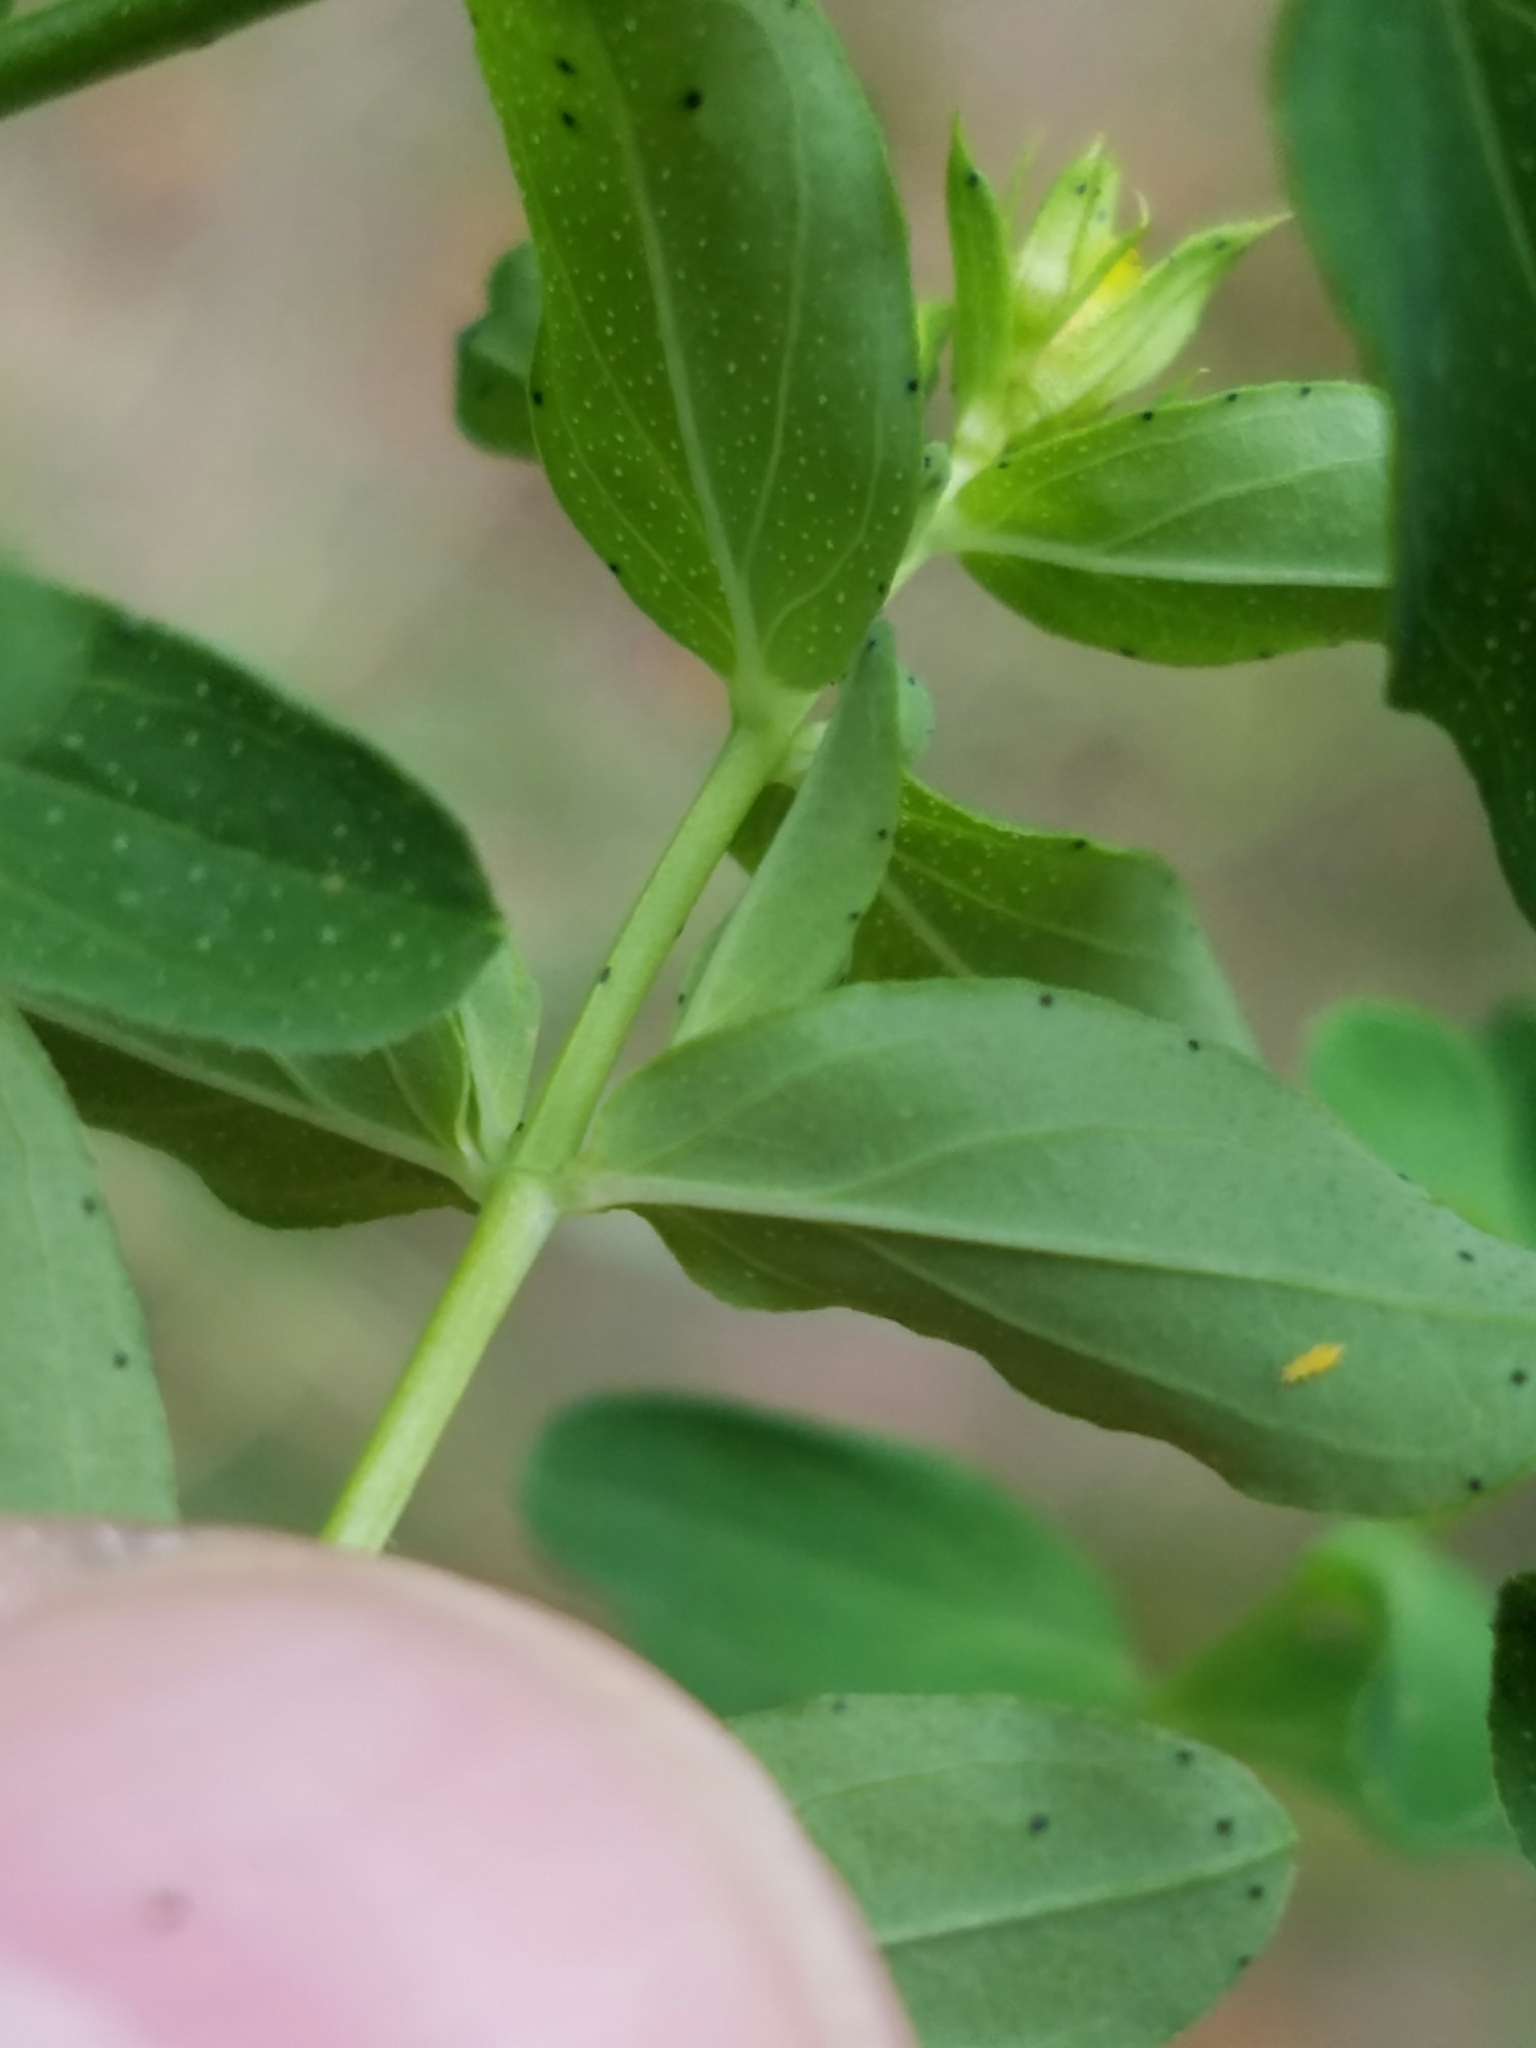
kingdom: Plantae
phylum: Tracheophyta
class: Magnoliopsida
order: Malpighiales
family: Hypericaceae
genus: Hypericum
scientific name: Hypericum perforatum
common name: Common st. johnswort
